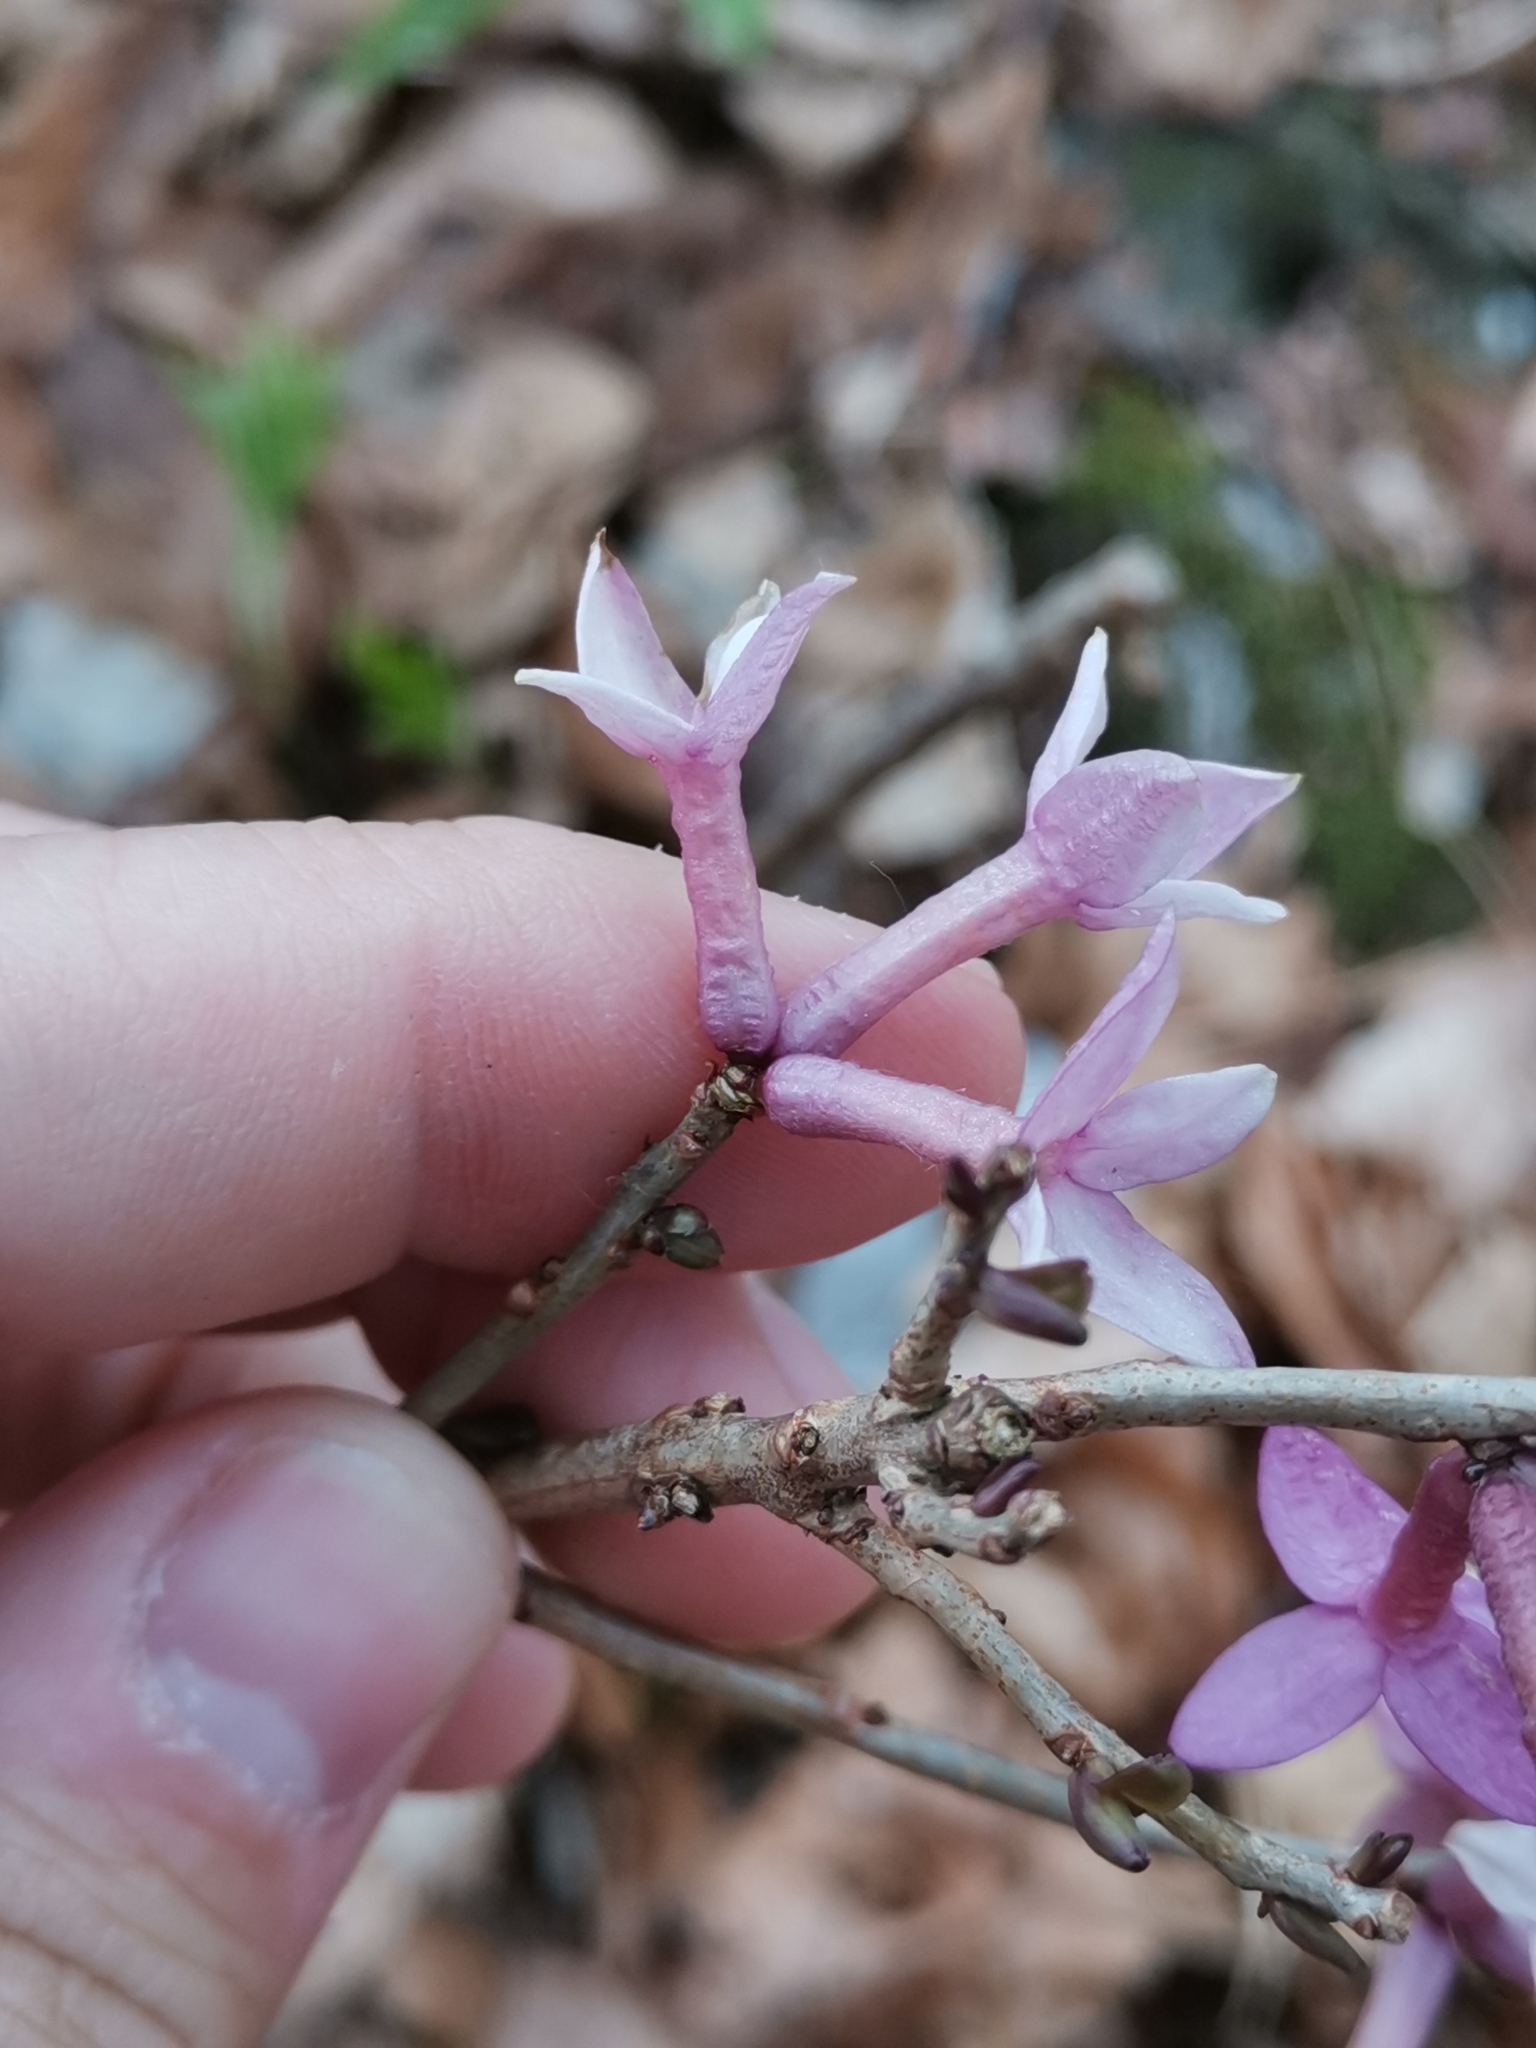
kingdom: Plantae
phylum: Tracheophyta
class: Magnoliopsida
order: Malvales
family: Thymelaeaceae
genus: Daphne
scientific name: Daphne mezereum
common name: Mezereon
